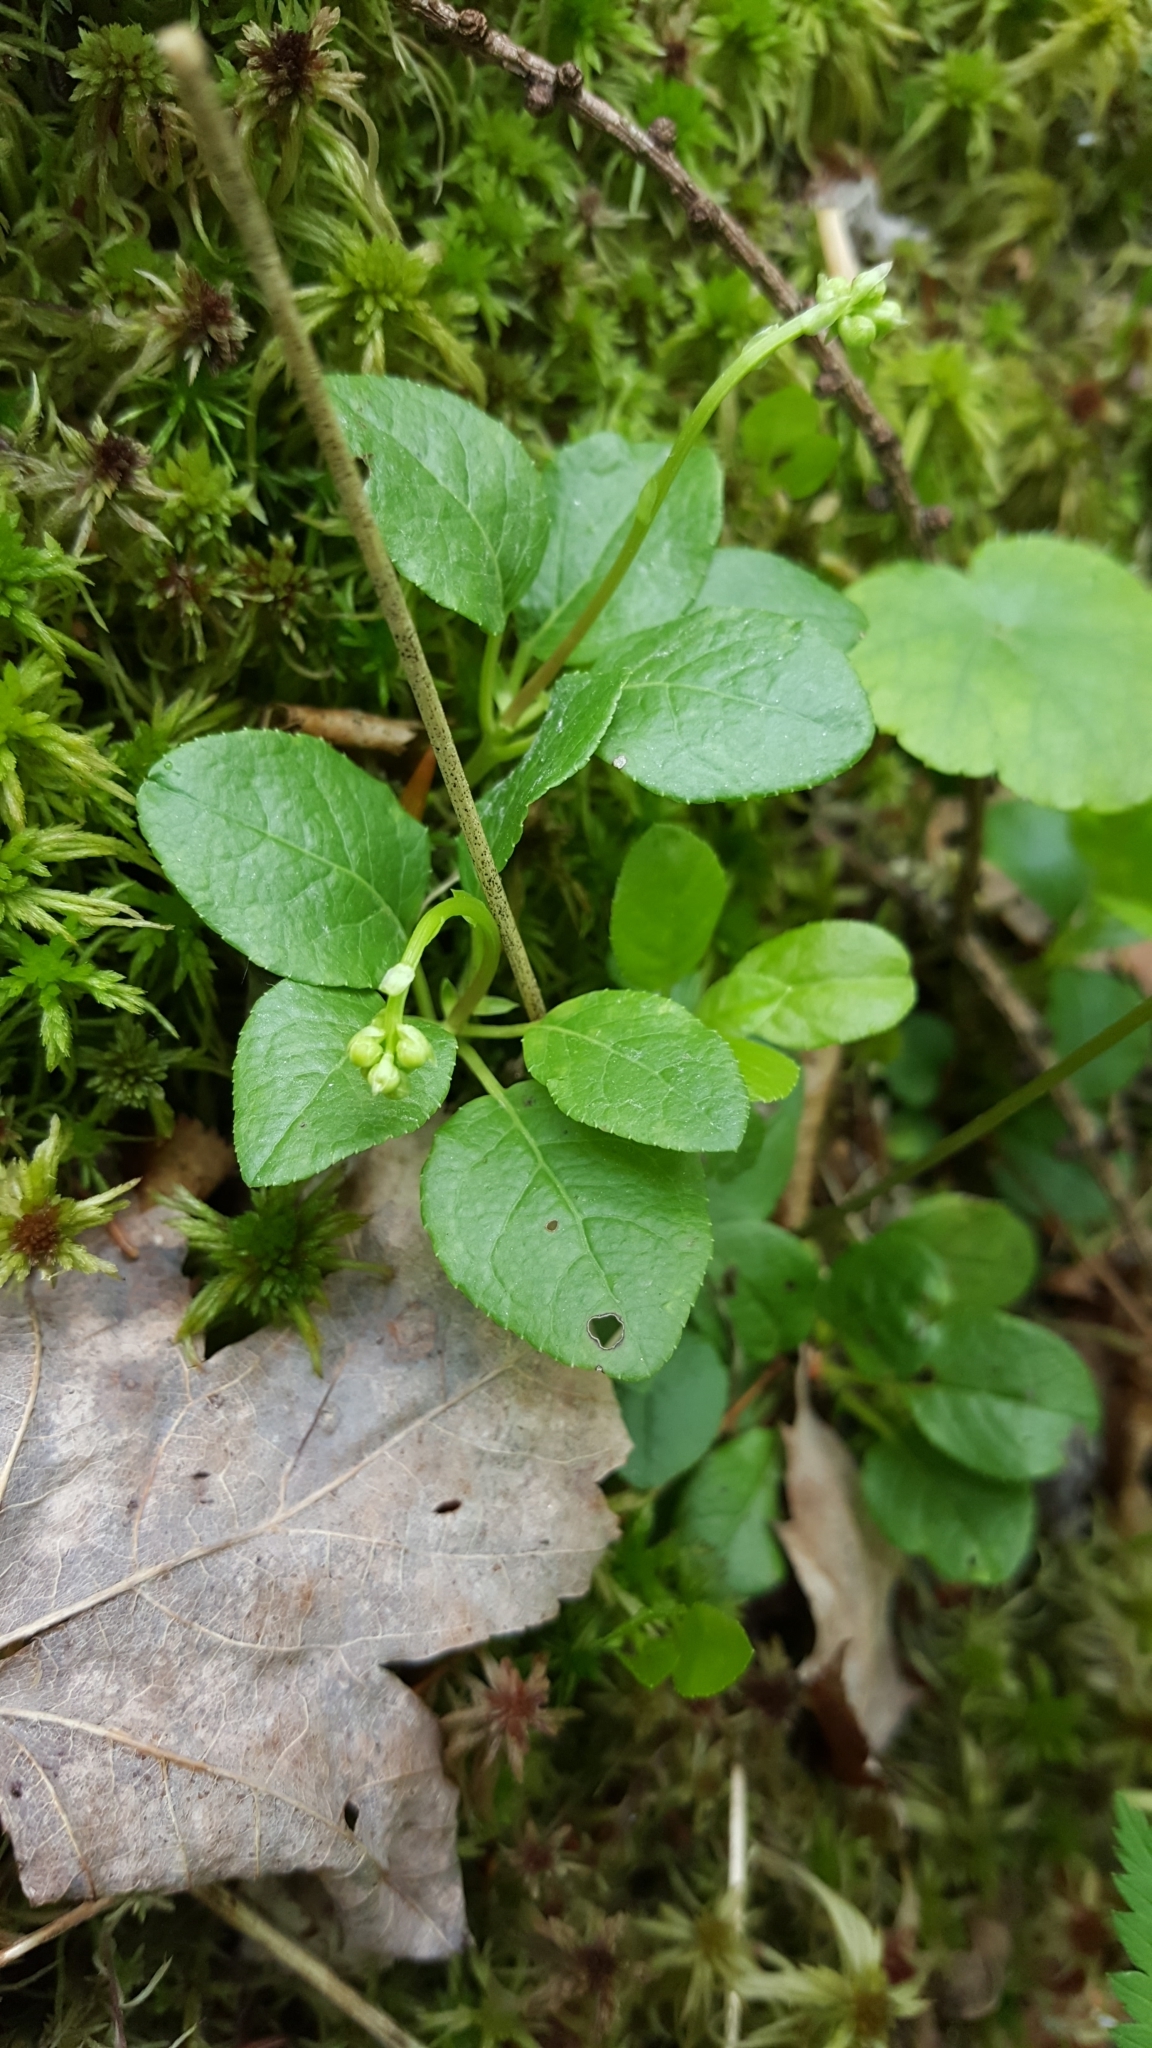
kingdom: Plantae
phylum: Tracheophyta
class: Magnoliopsida
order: Ericales
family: Ericaceae
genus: Orthilia
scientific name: Orthilia secunda
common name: One-sided orthilia
